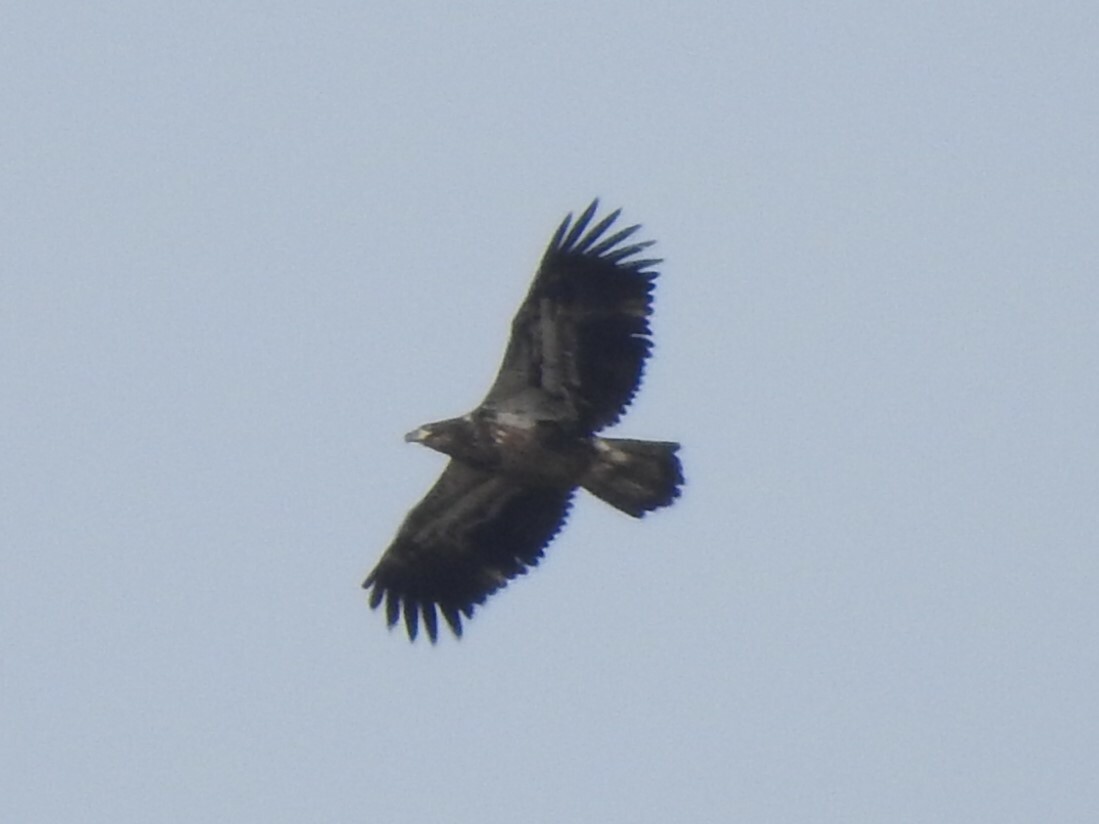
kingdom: Animalia
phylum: Chordata
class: Aves
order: Accipitriformes
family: Accipitridae
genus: Haliaeetus
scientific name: Haliaeetus leucocephalus
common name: Bald eagle
